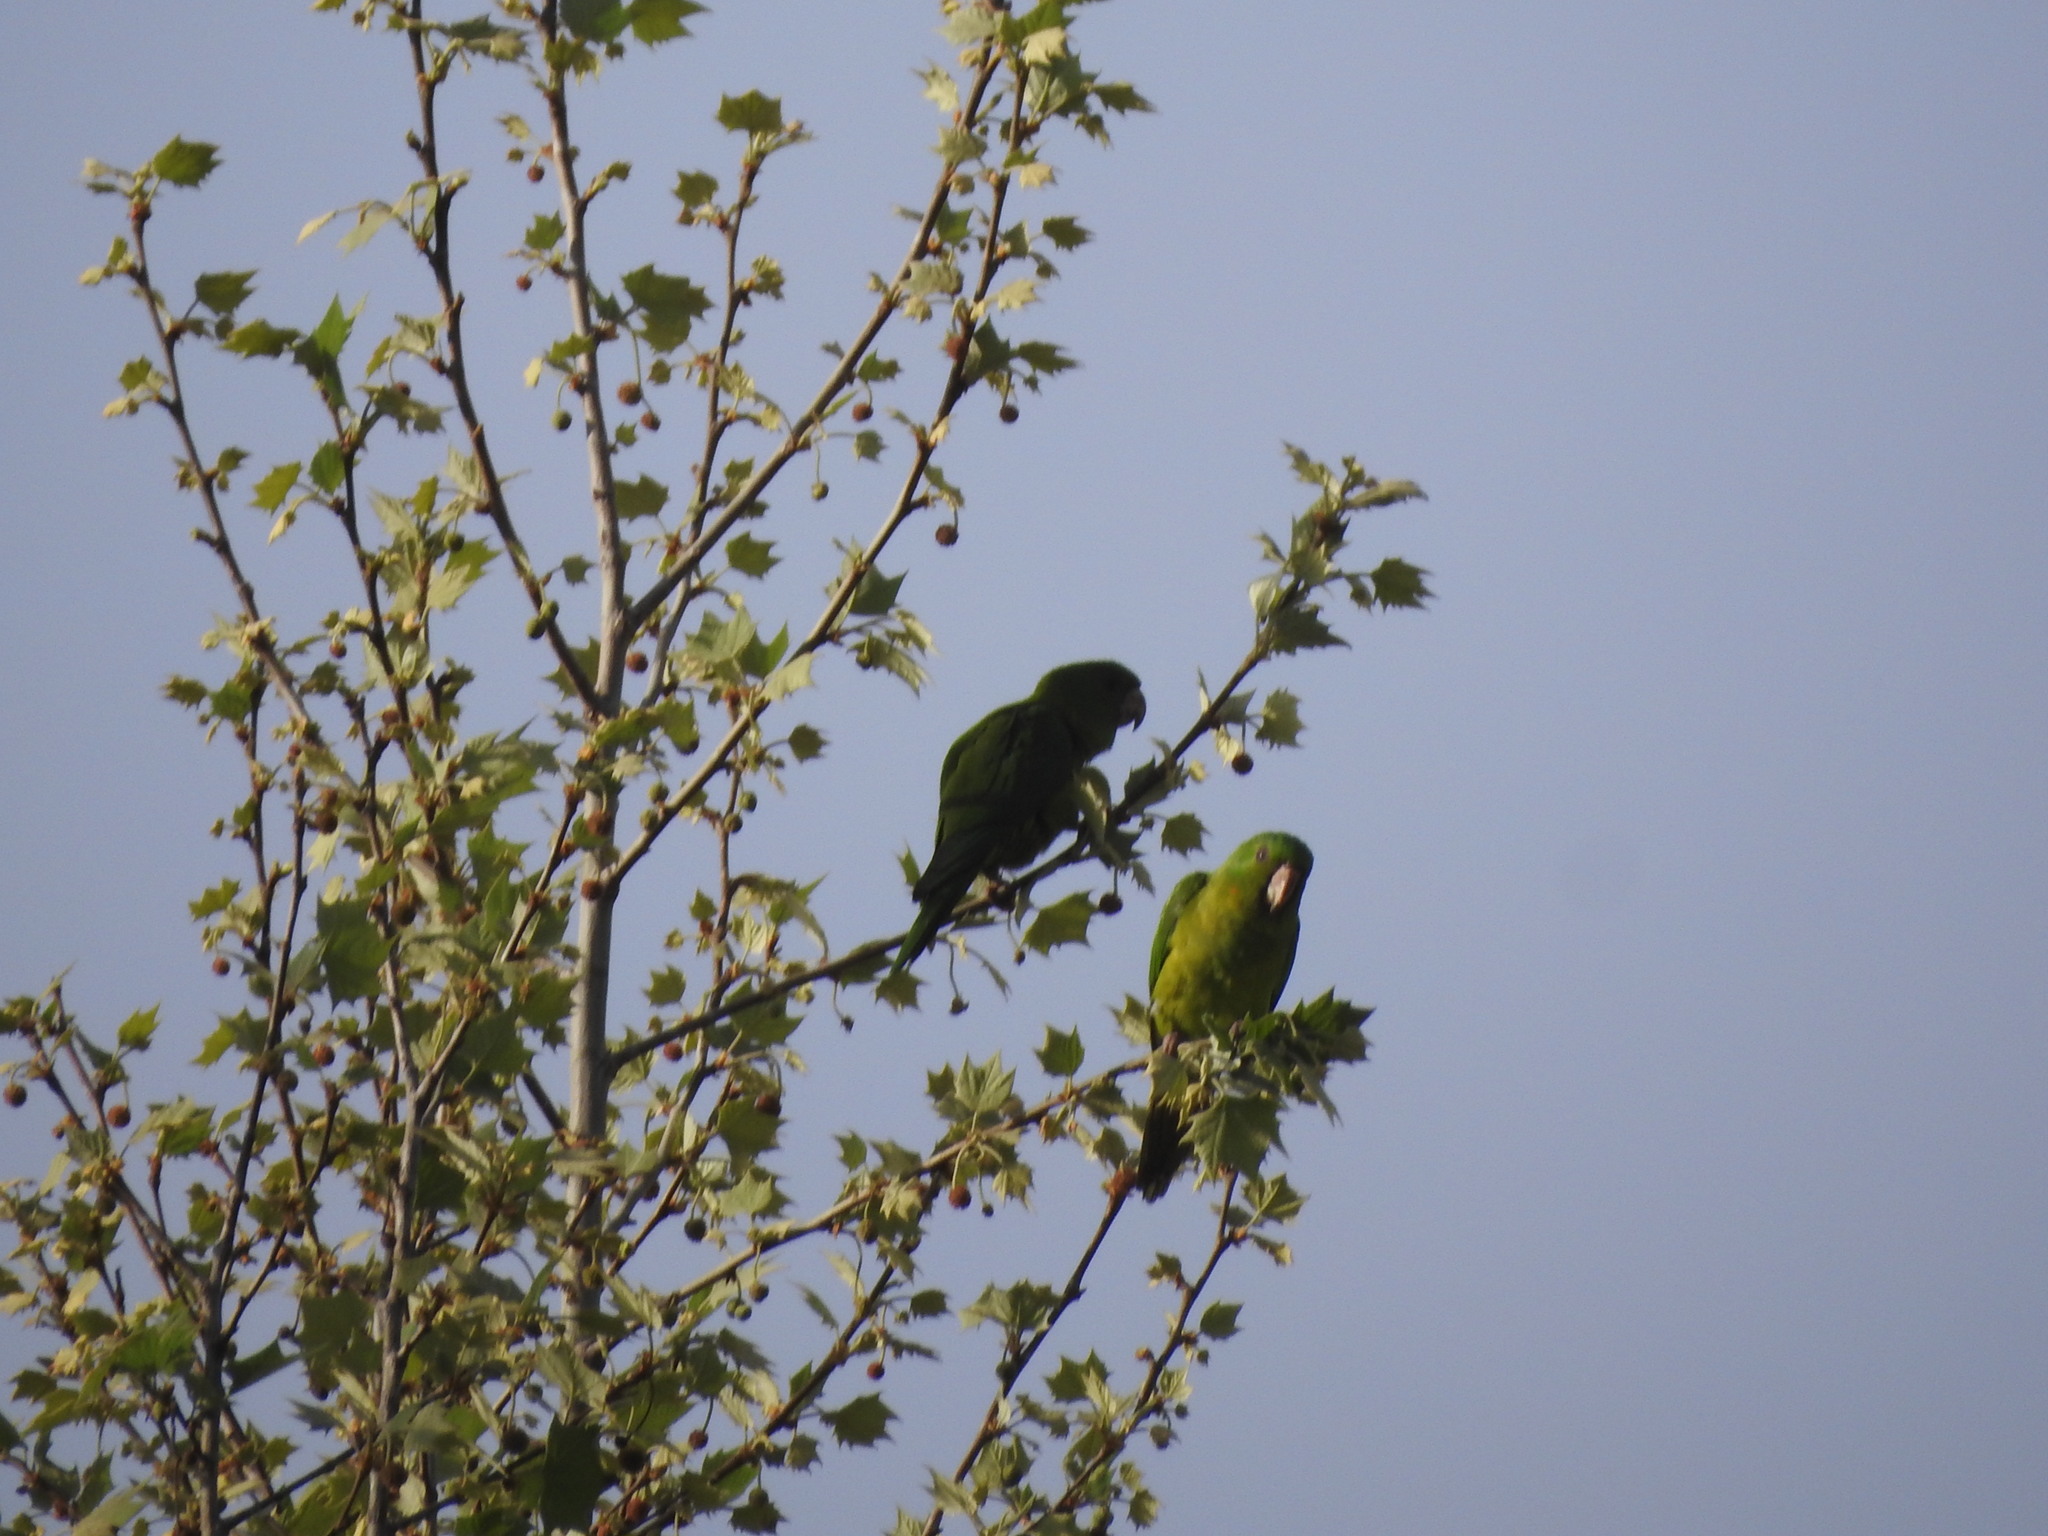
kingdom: Animalia
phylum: Chordata
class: Aves
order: Psittaciformes
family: Psittacidae
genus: Aratinga
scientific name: Aratinga holochlora
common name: Green parakeet
